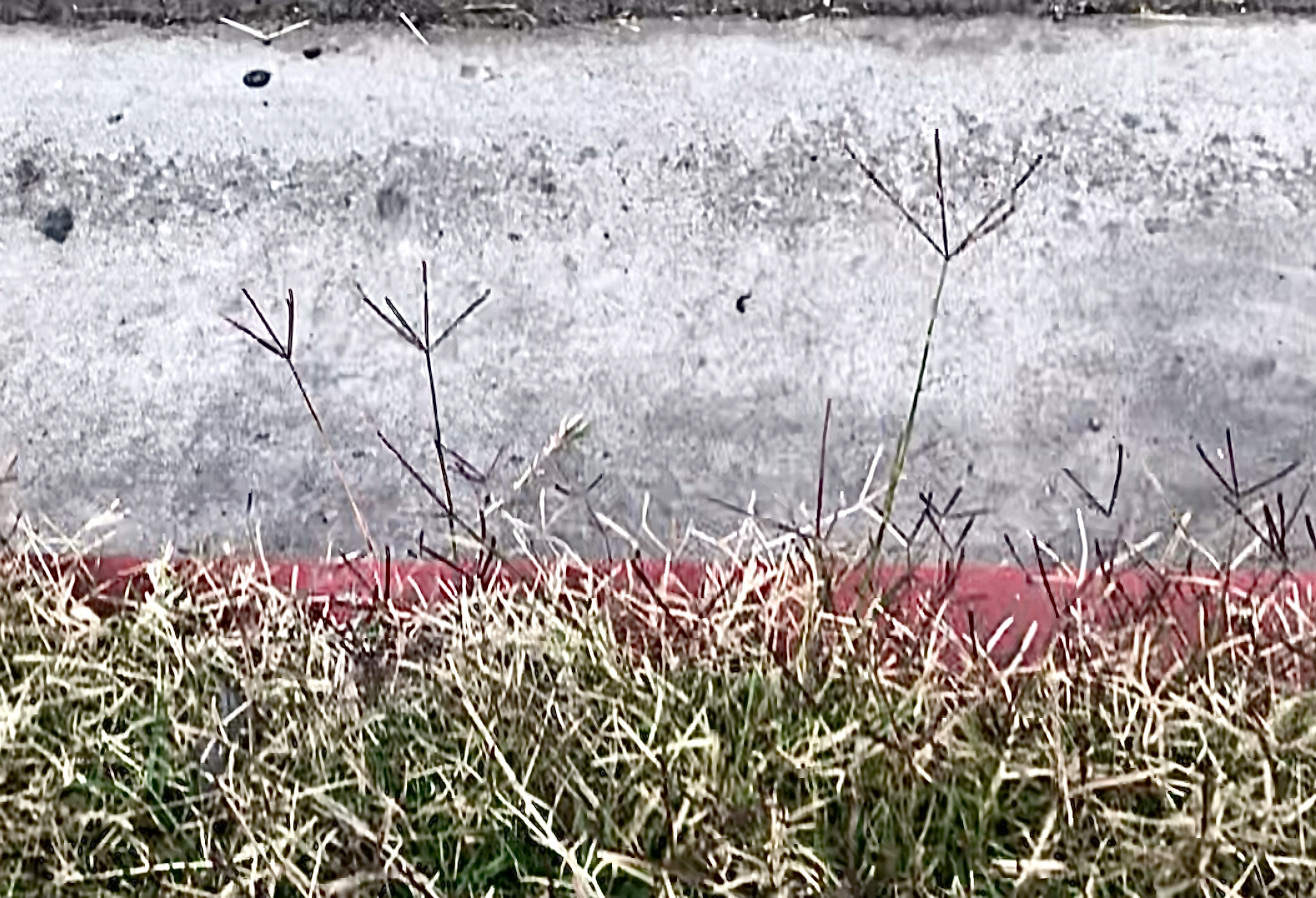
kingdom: Plantae
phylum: Tracheophyta
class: Liliopsida
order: Poales
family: Poaceae
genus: Cynodon
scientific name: Cynodon dactylon
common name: Bermuda grass
